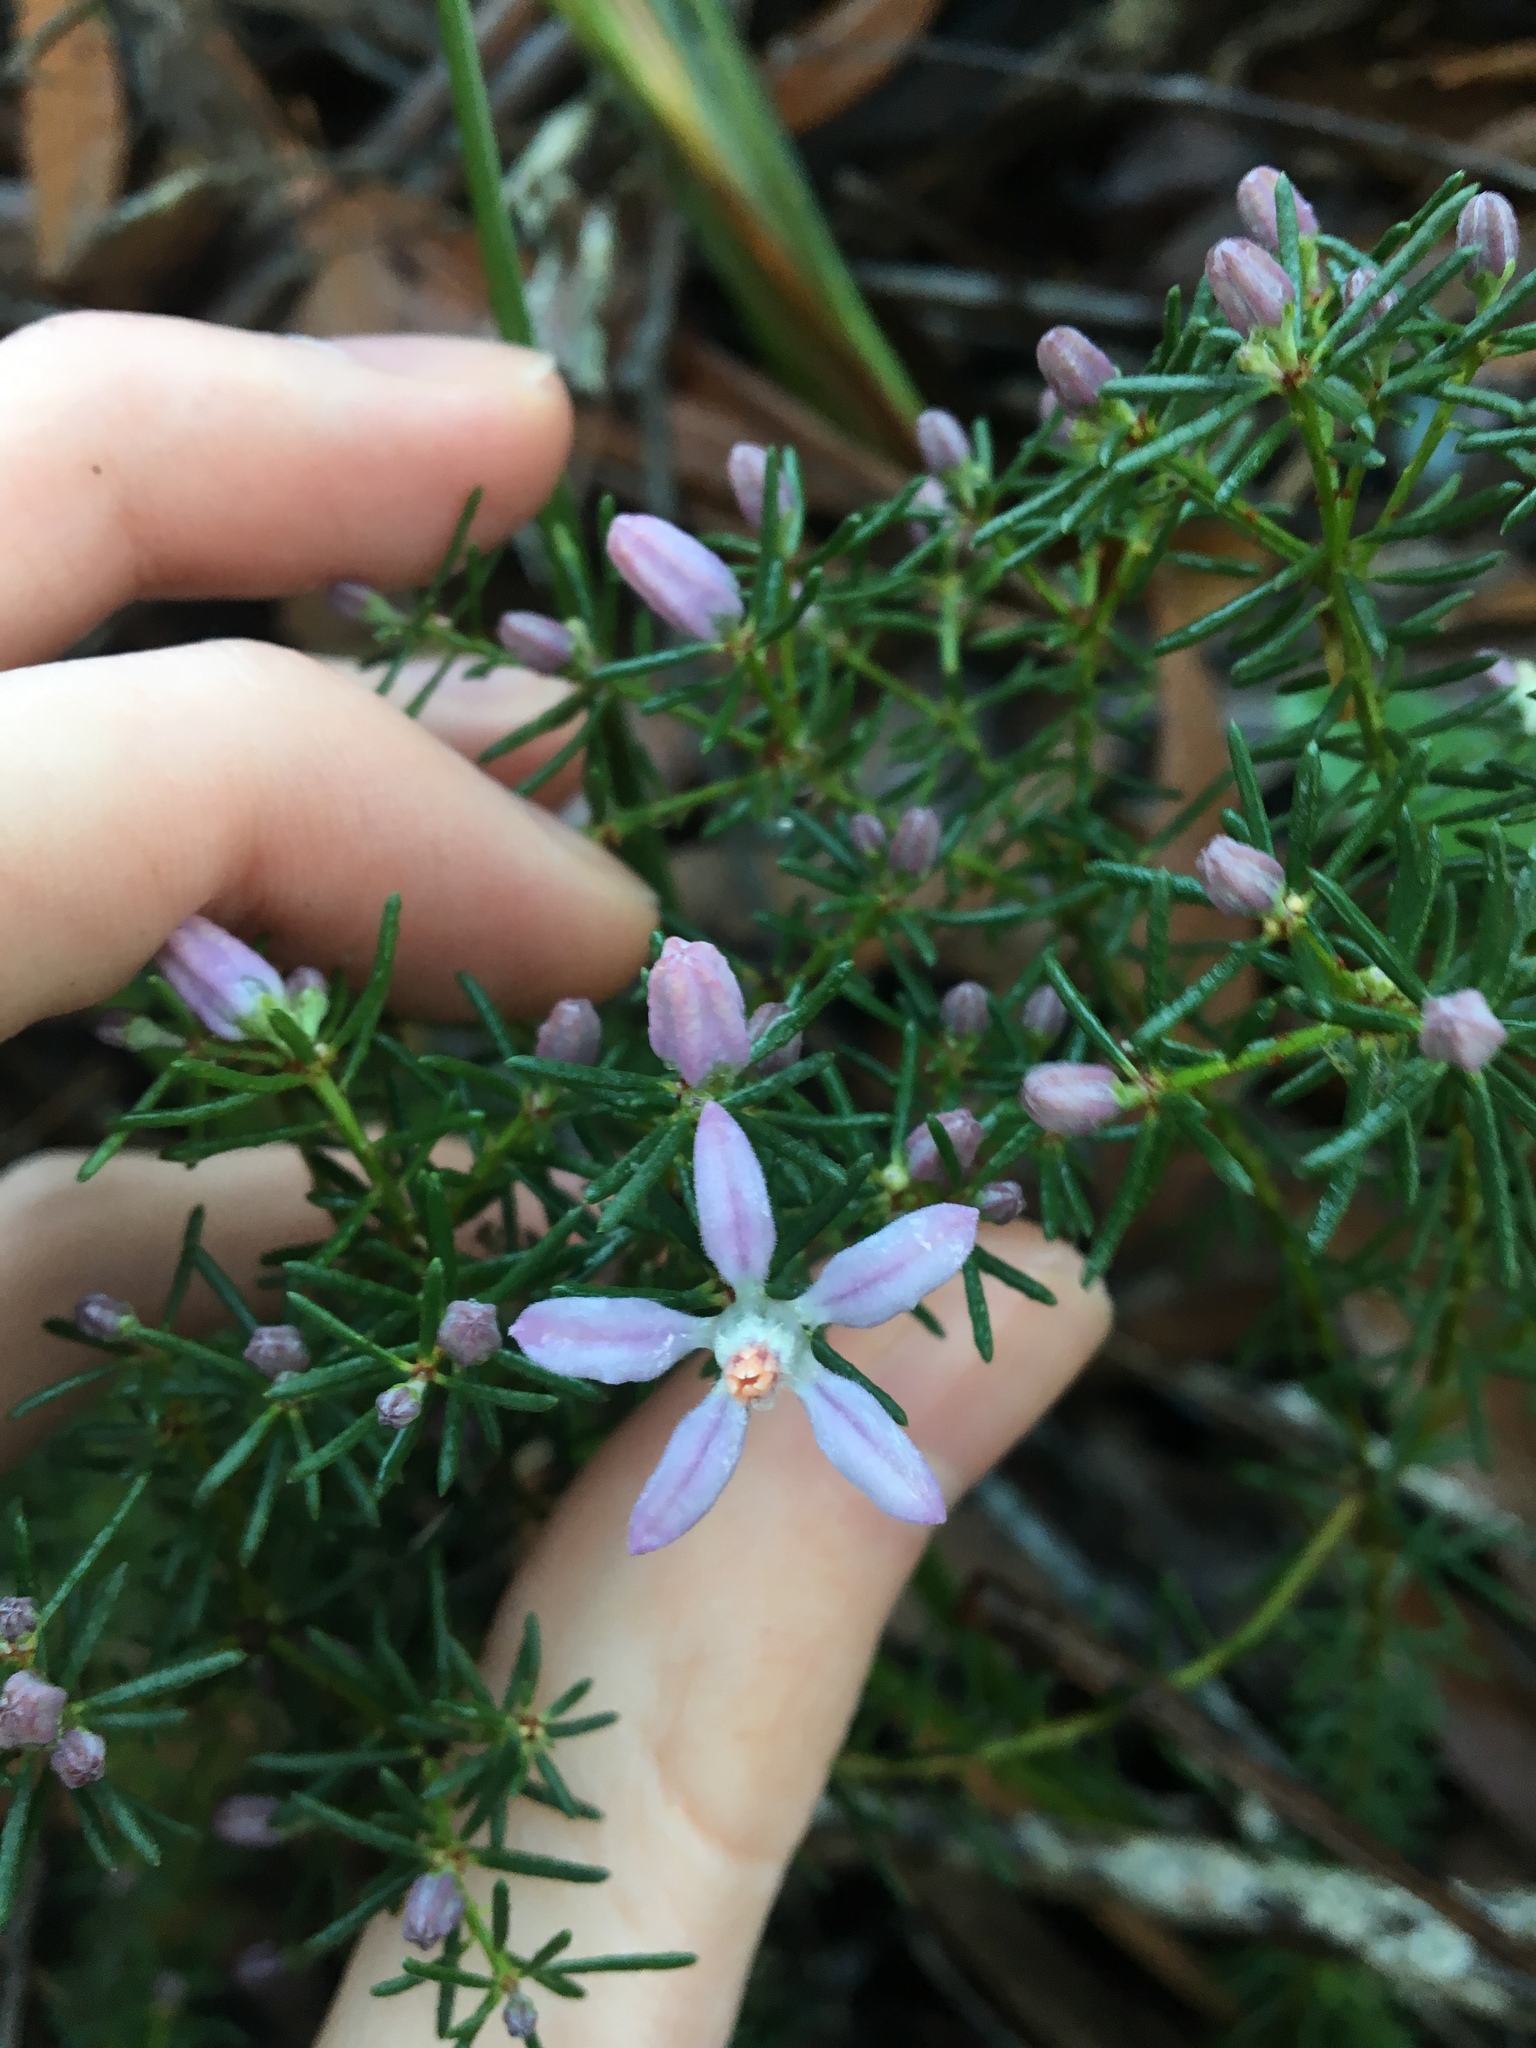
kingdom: Plantae
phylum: Tracheophyta
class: Magnoliopsida
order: Sapindales
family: Rutaceae
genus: Philotheca
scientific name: Philotheca salsolifolia
